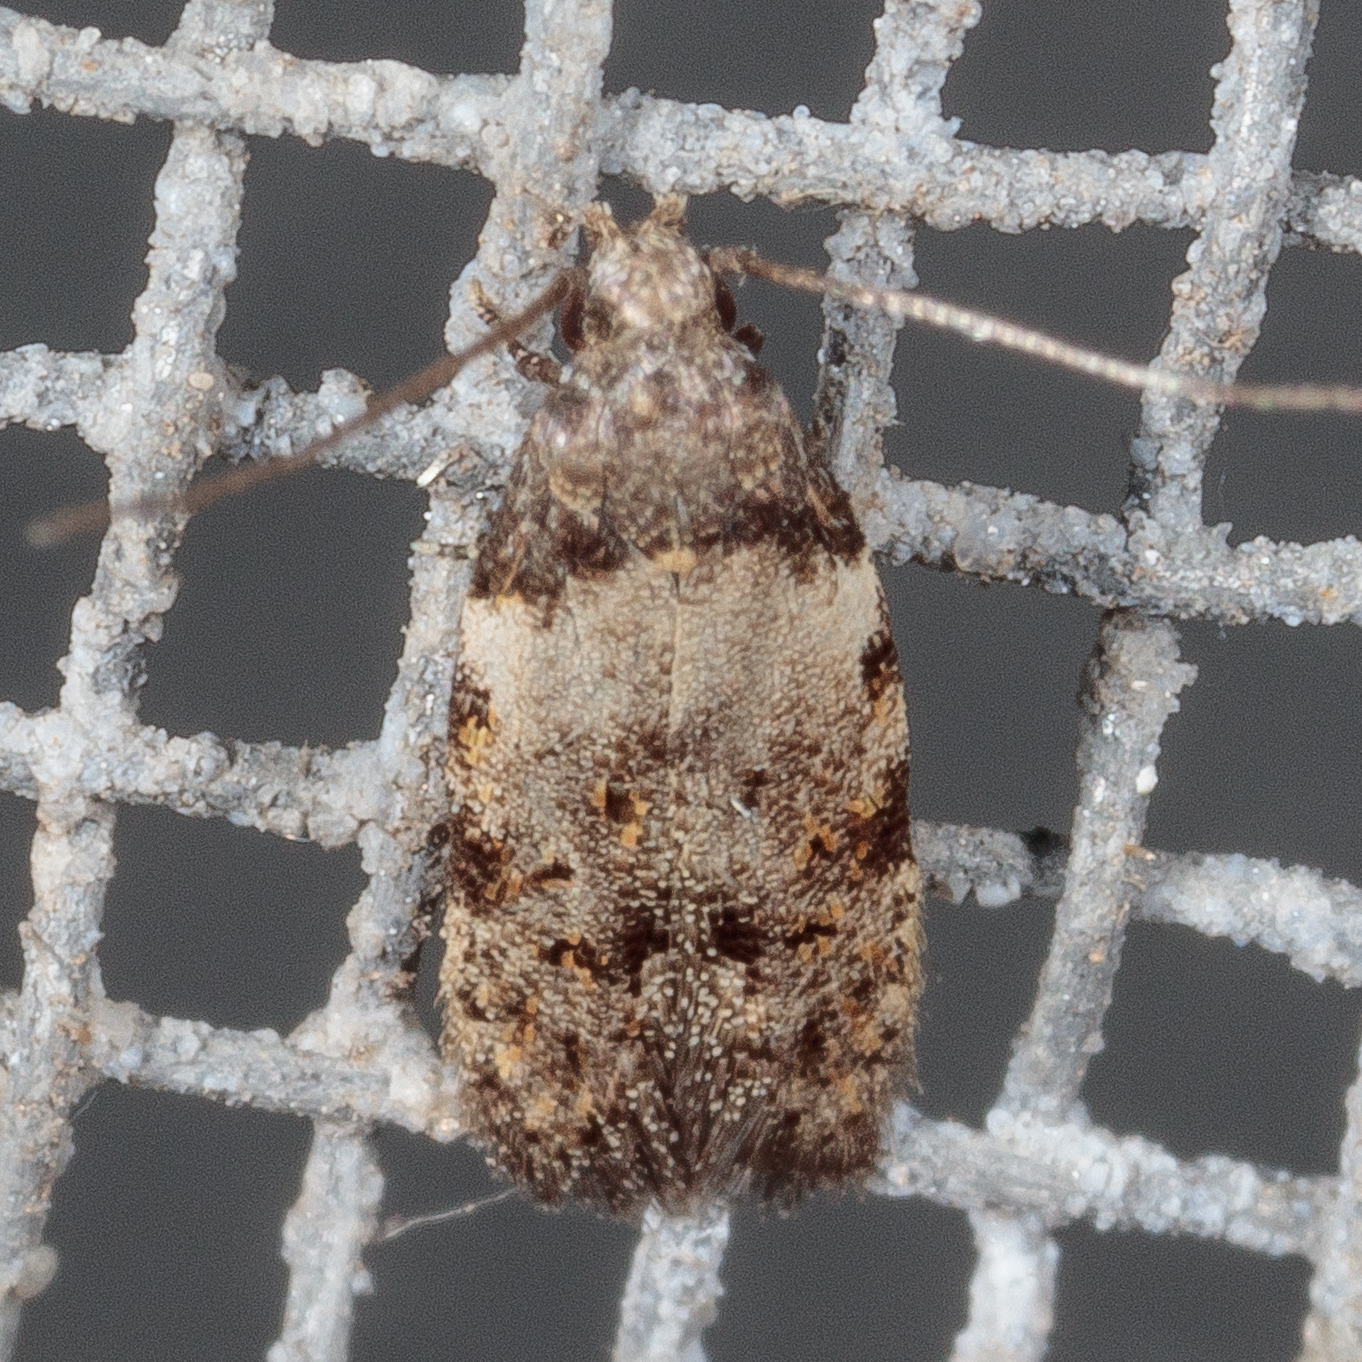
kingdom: Animalia
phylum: Arthropoda
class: Insecta
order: Lepidoptera
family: Autostichidae
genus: Taygete
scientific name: Taygete attributella
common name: Triangle-marked twirler moth
